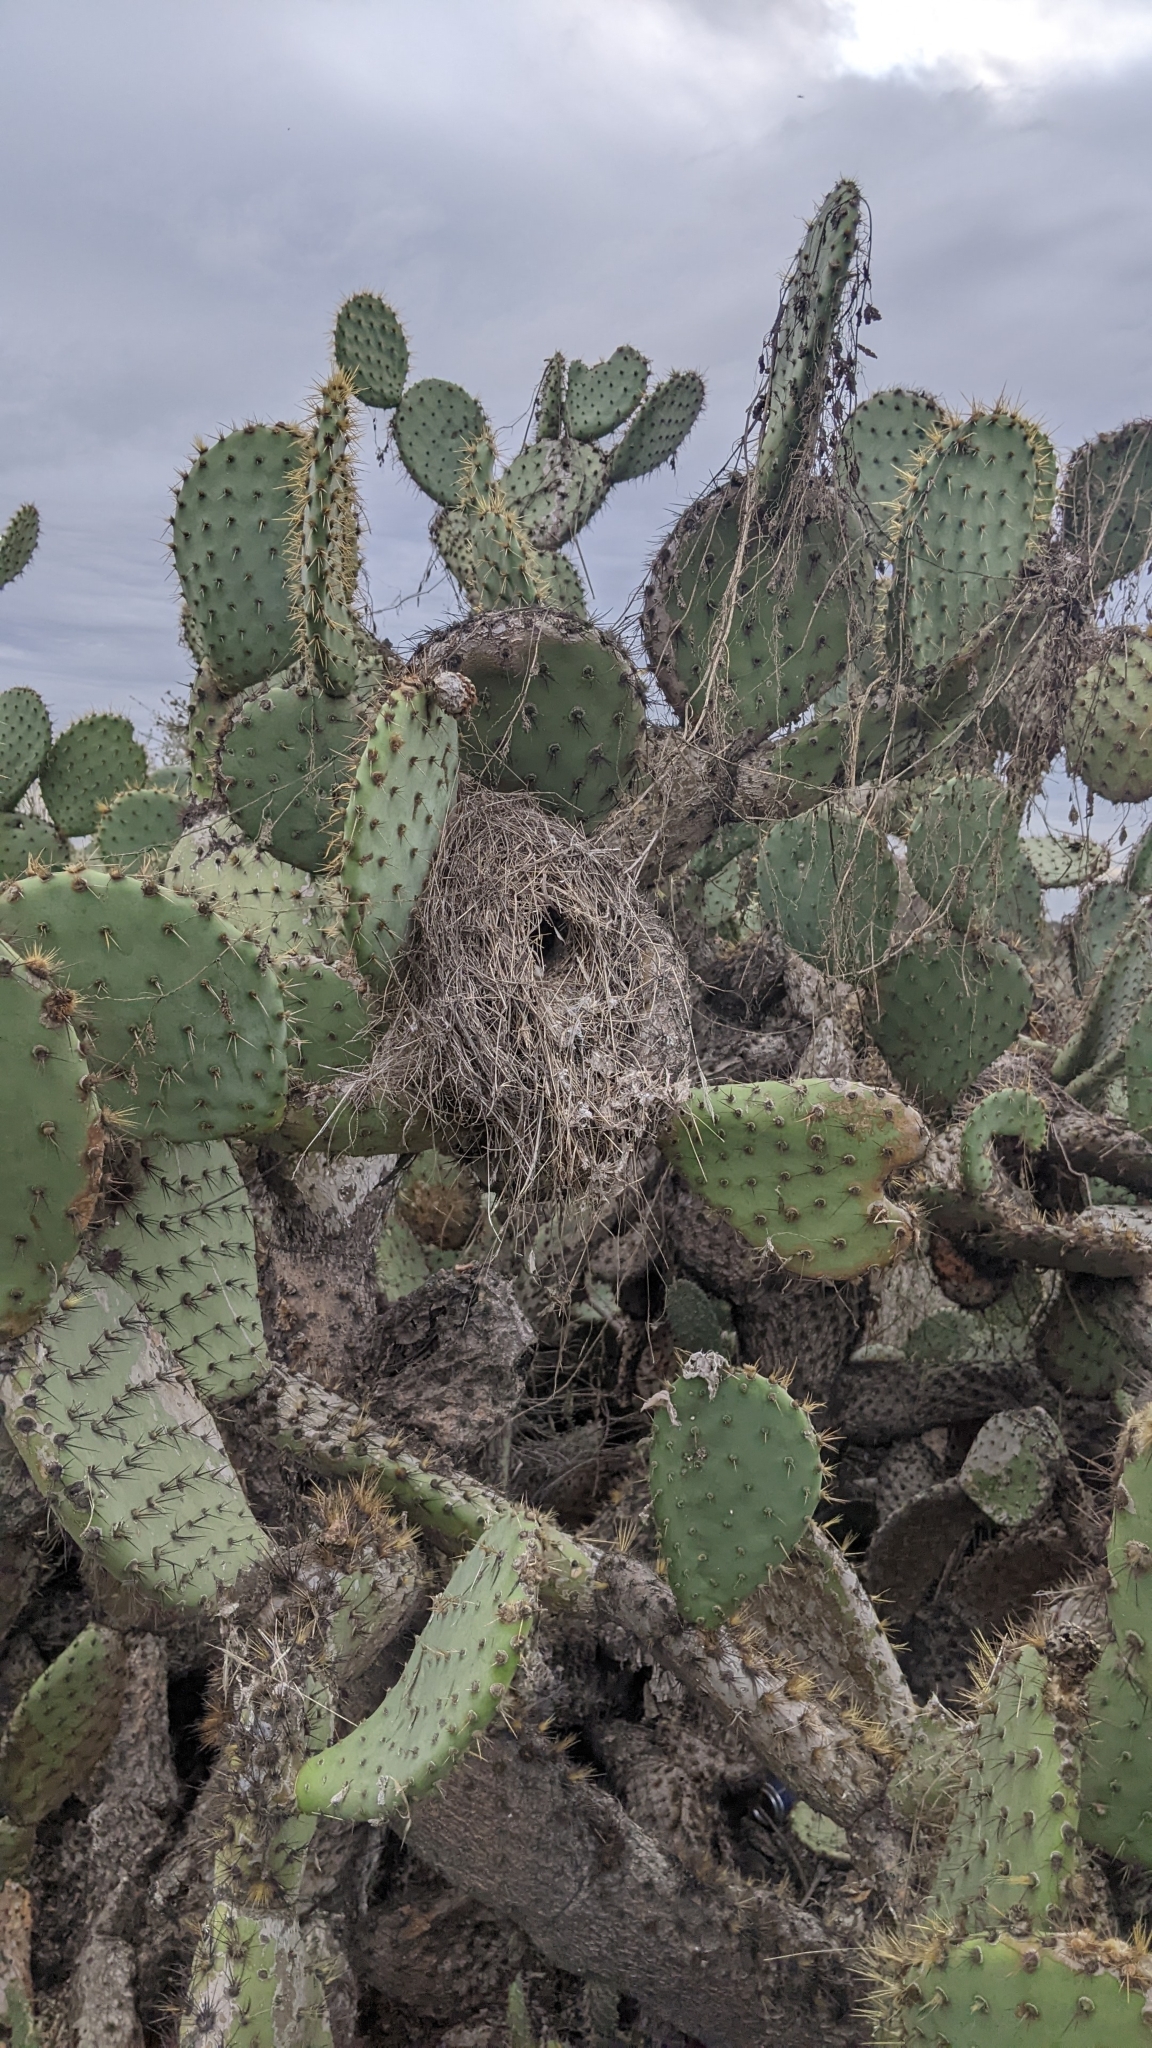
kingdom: Animalia
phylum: Chordata
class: Aves
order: Passeriformes
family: Troglodytidae
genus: Campylorhynchus
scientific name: Campylorhynchus brunneicapillus
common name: Cactus wren
